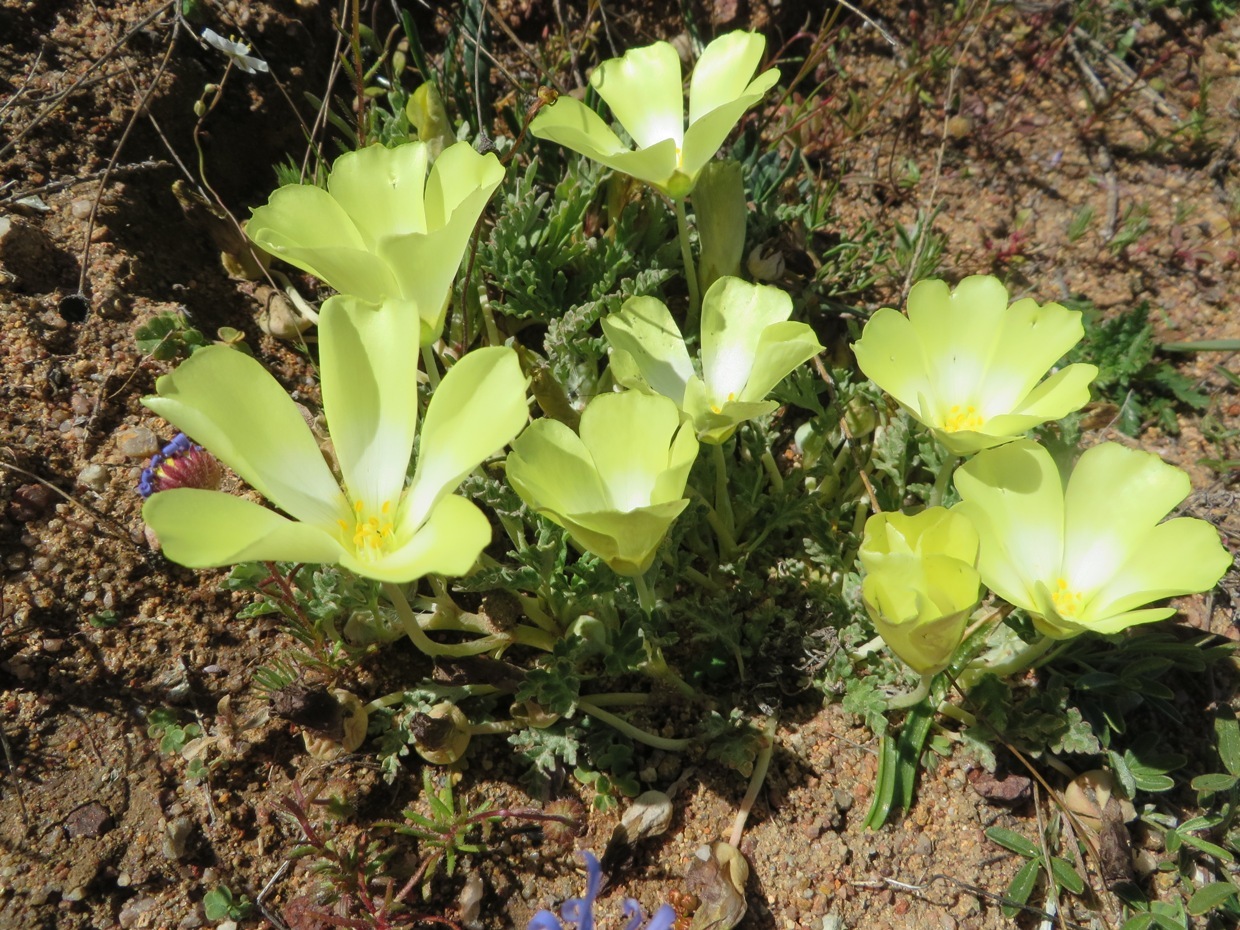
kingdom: Plantae
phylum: Tracheophyta
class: Magnoliopsida
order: Malvales
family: Neuradaceae
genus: Grielum
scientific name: Grielum humifusum
